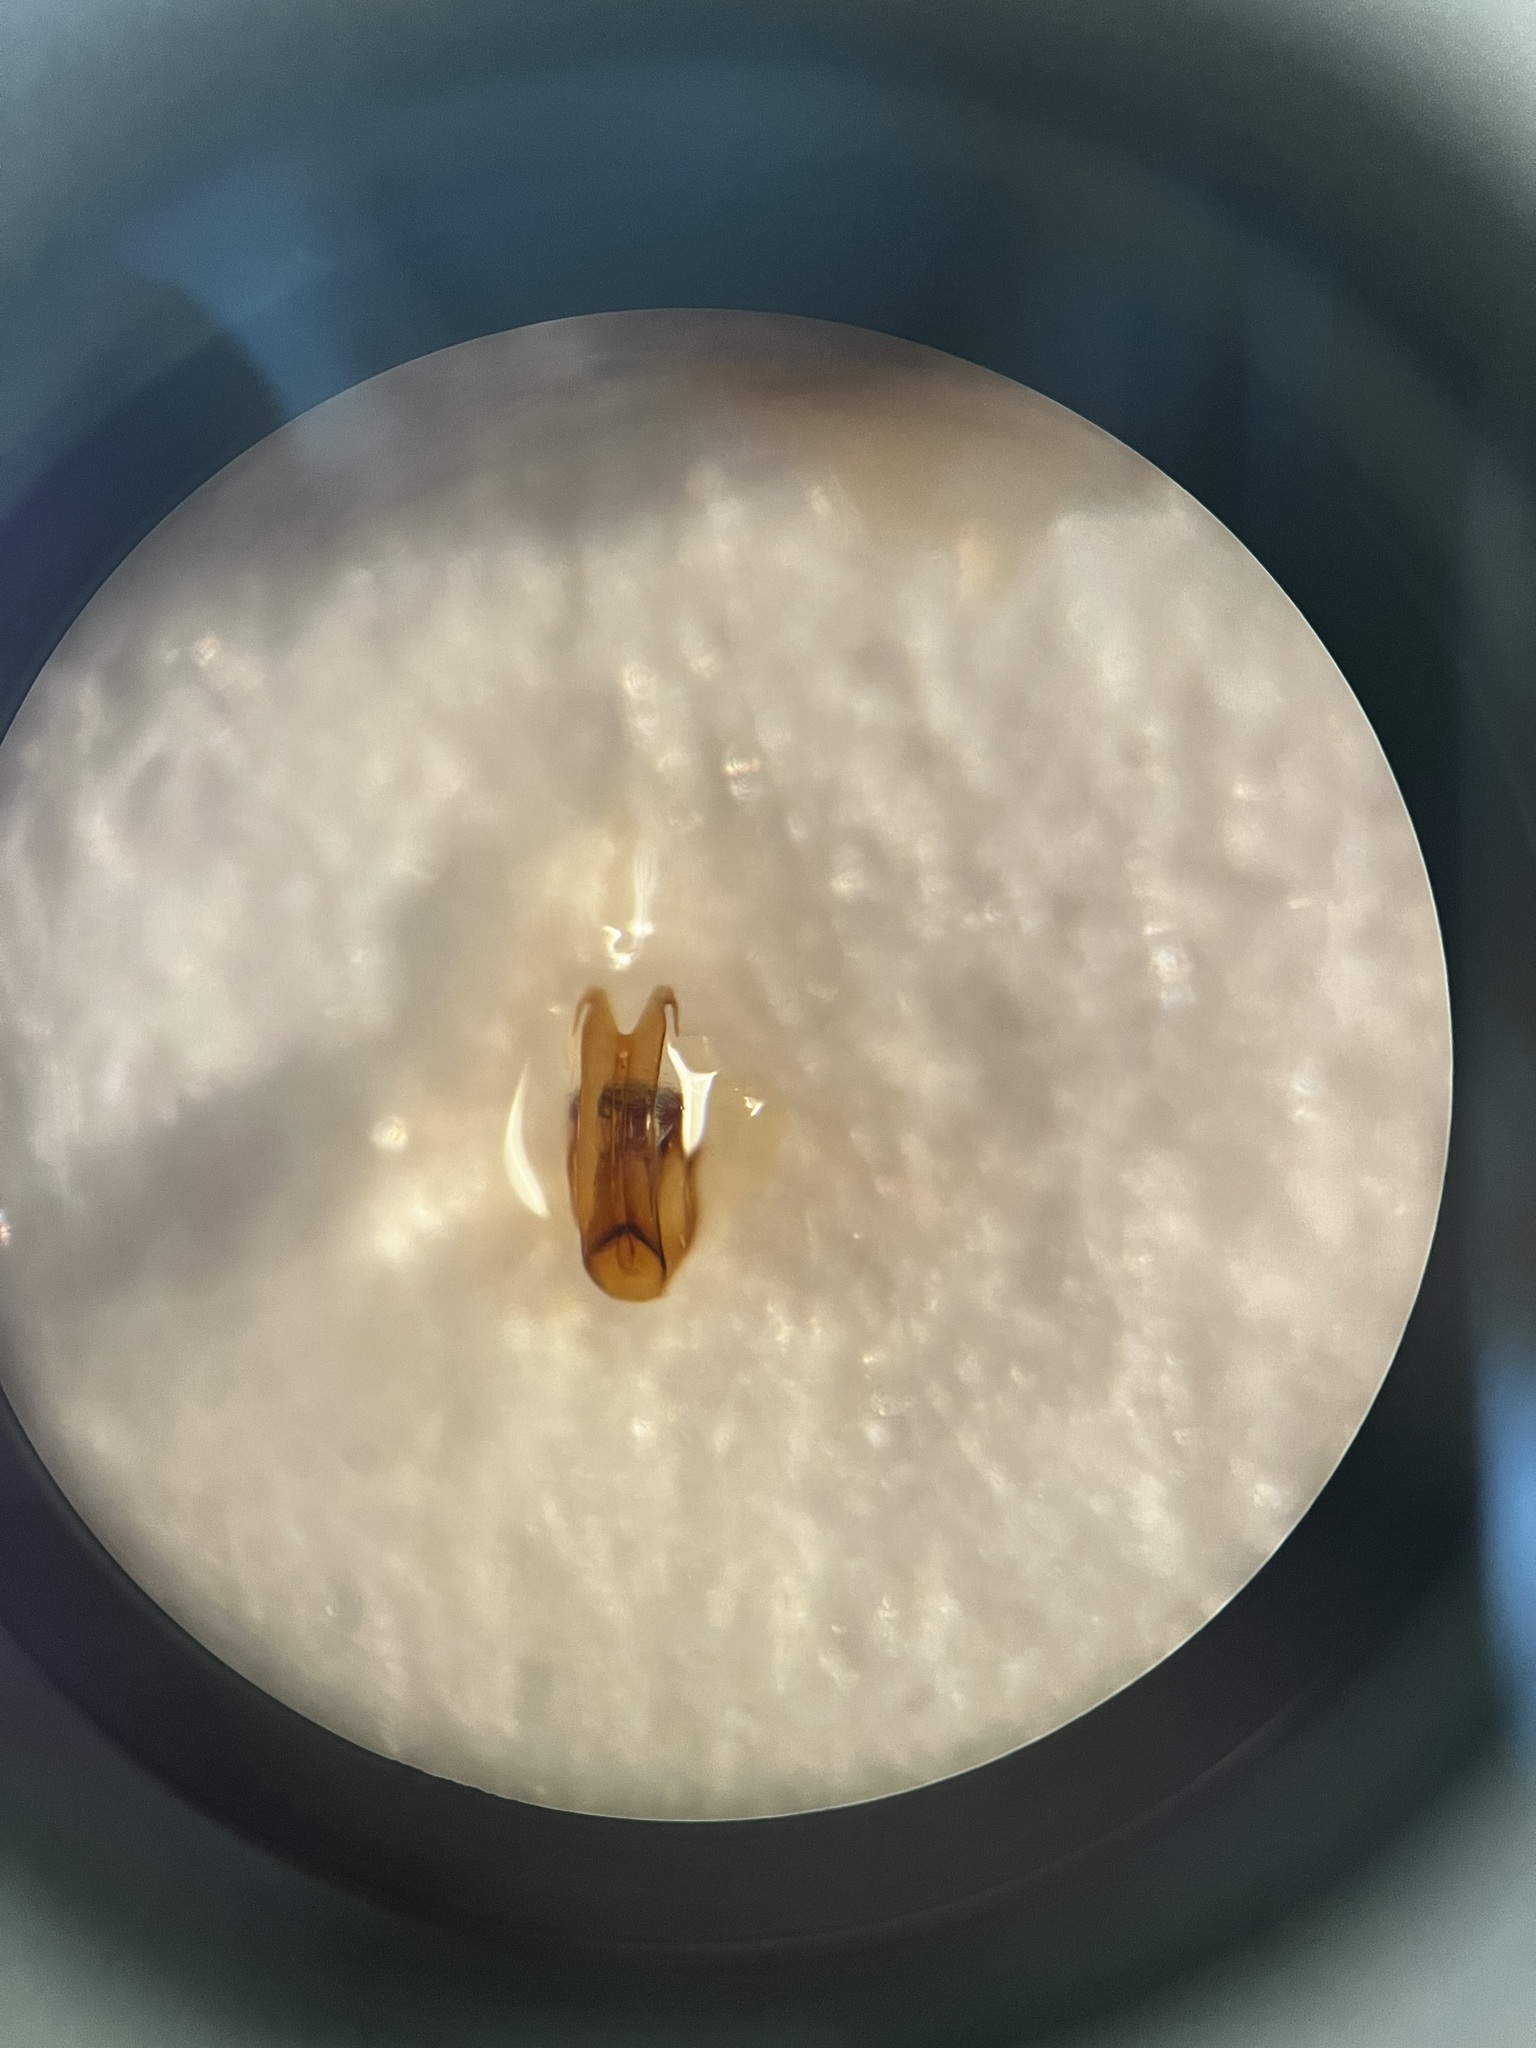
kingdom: Animalia
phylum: Arthropoda
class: Insecta
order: Hemiptera
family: Cicadellidae
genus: Euscelis
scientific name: Euscelis incisa
